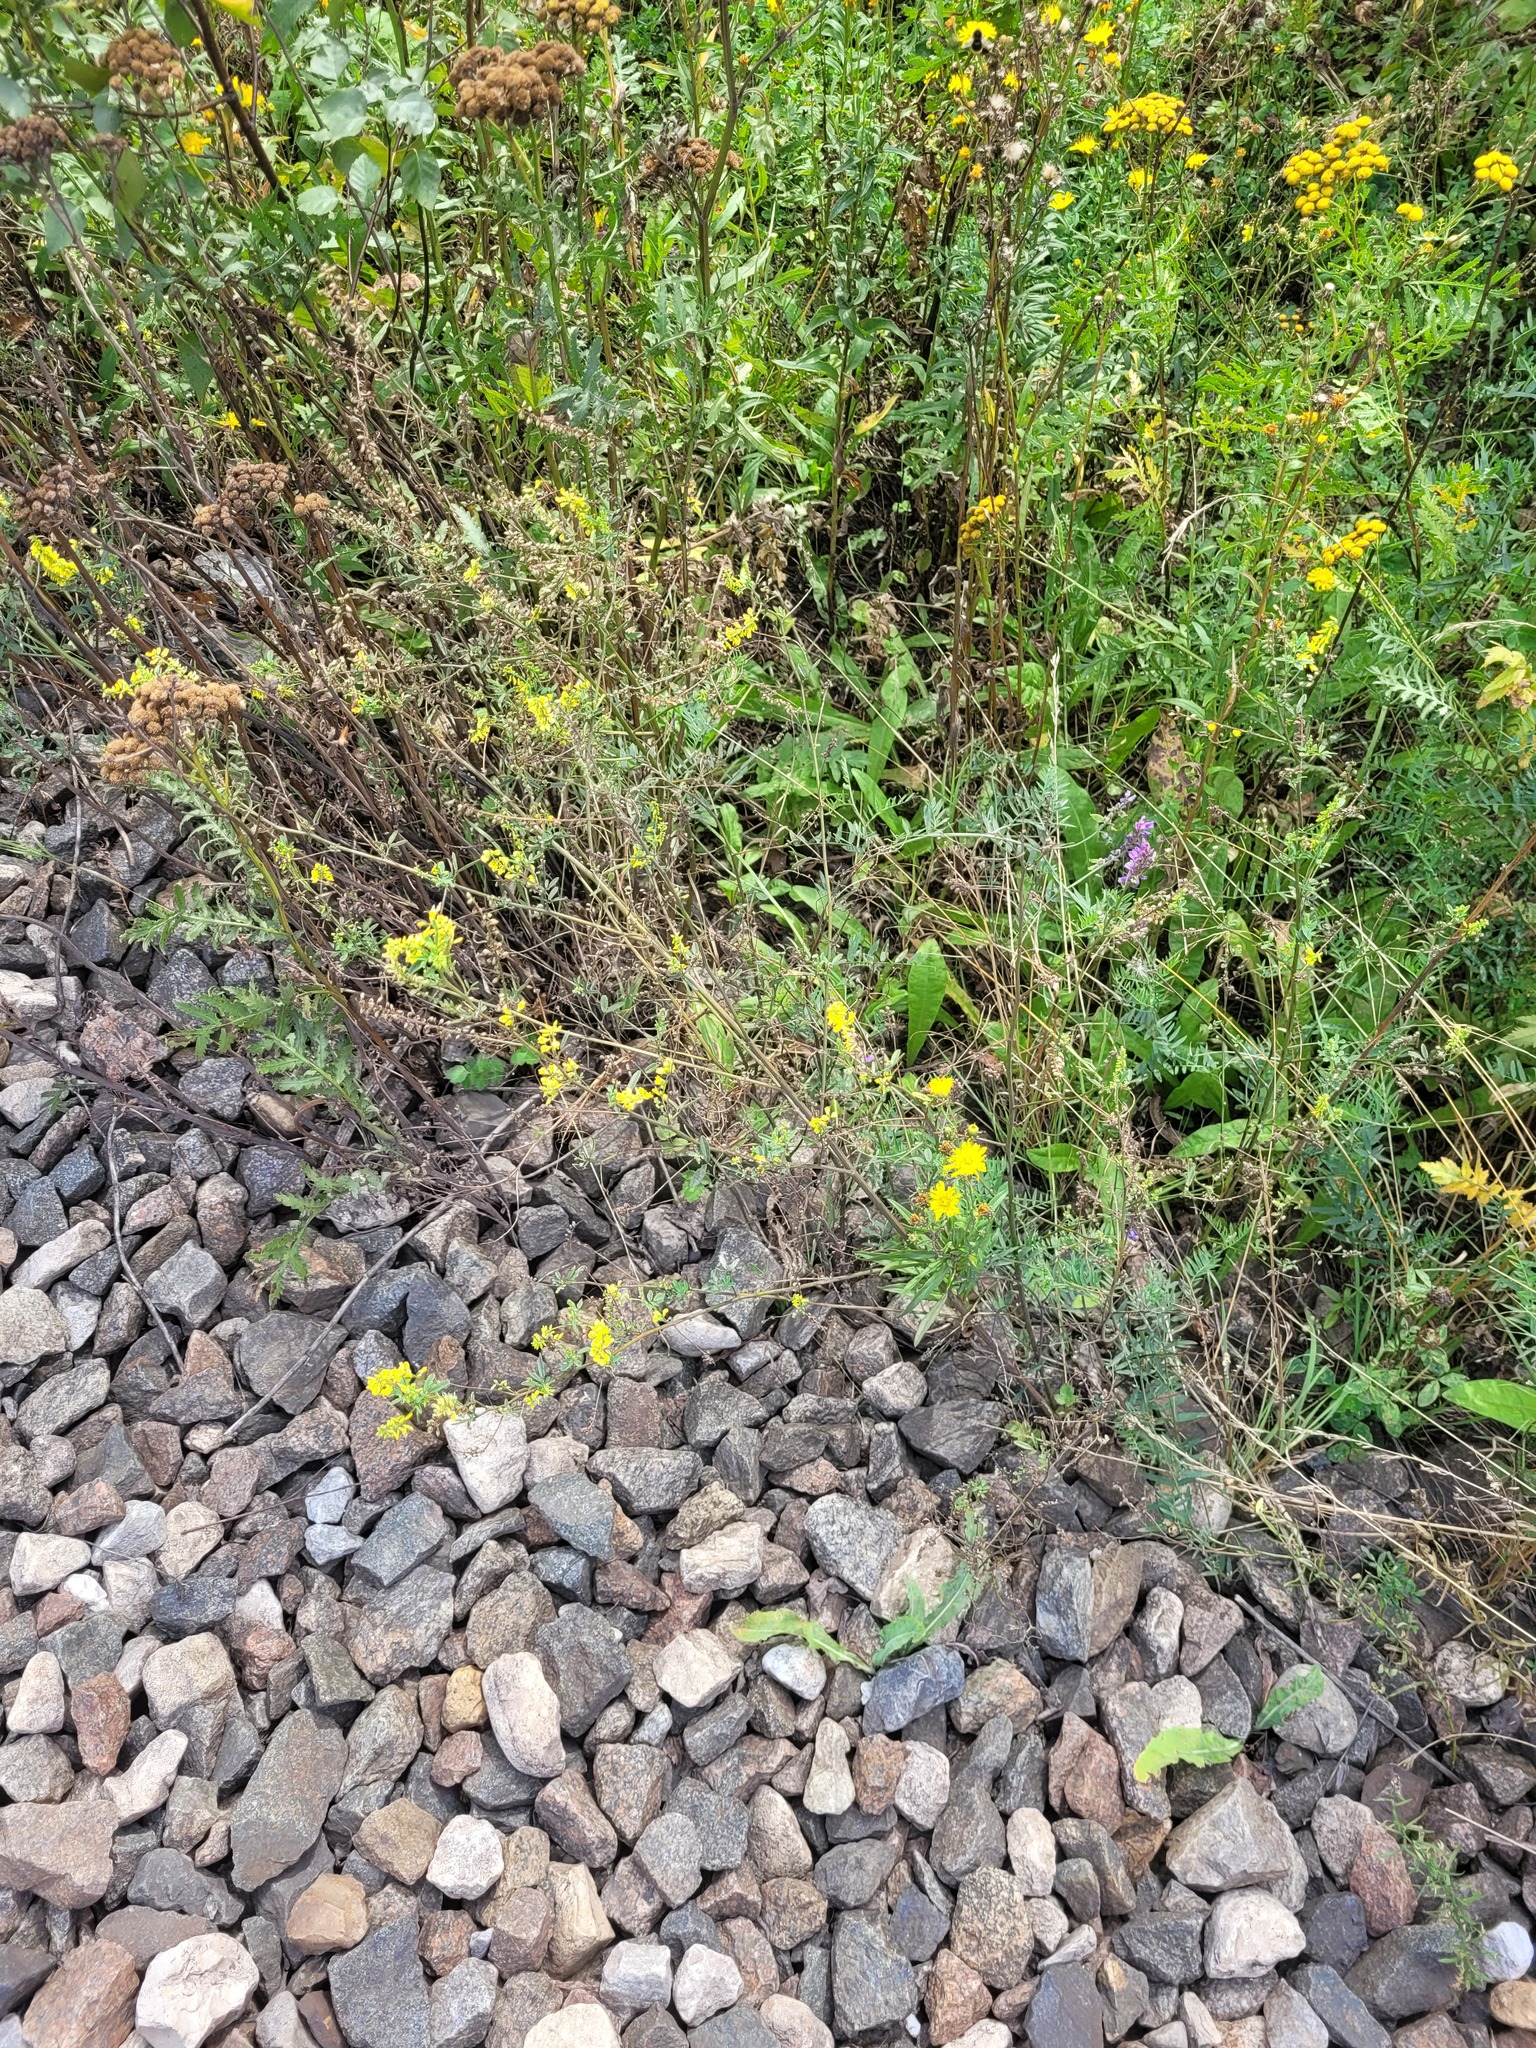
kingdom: Plantae
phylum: Tracheophyta
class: Magnoliopsida
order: Fabales
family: Fabaceae
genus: Melilotus
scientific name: Melilotus officinalis
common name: Sweetclover
